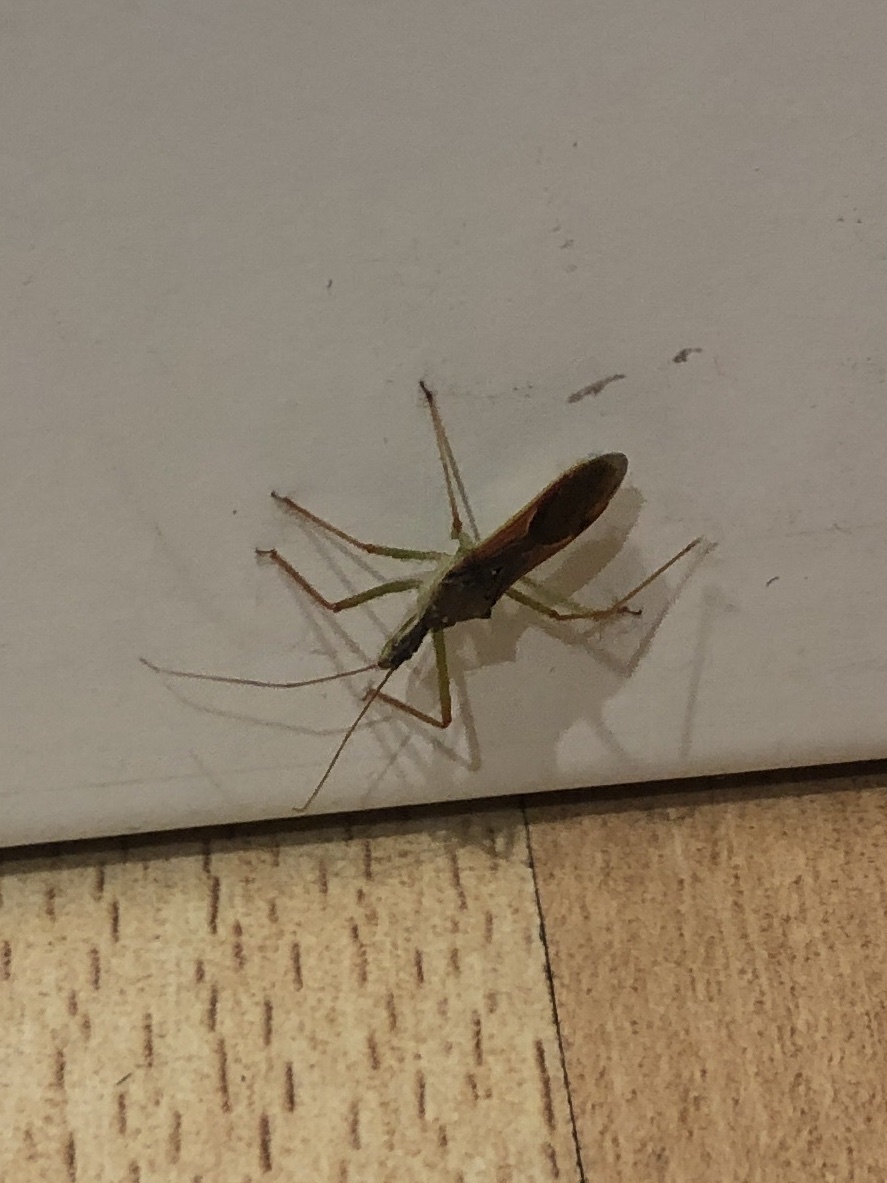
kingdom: Animalia
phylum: Arthropoda
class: Insecta
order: Hemiptera
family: Reduviidae
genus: Zelus
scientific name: Zelus renardii
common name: Assassin bug
